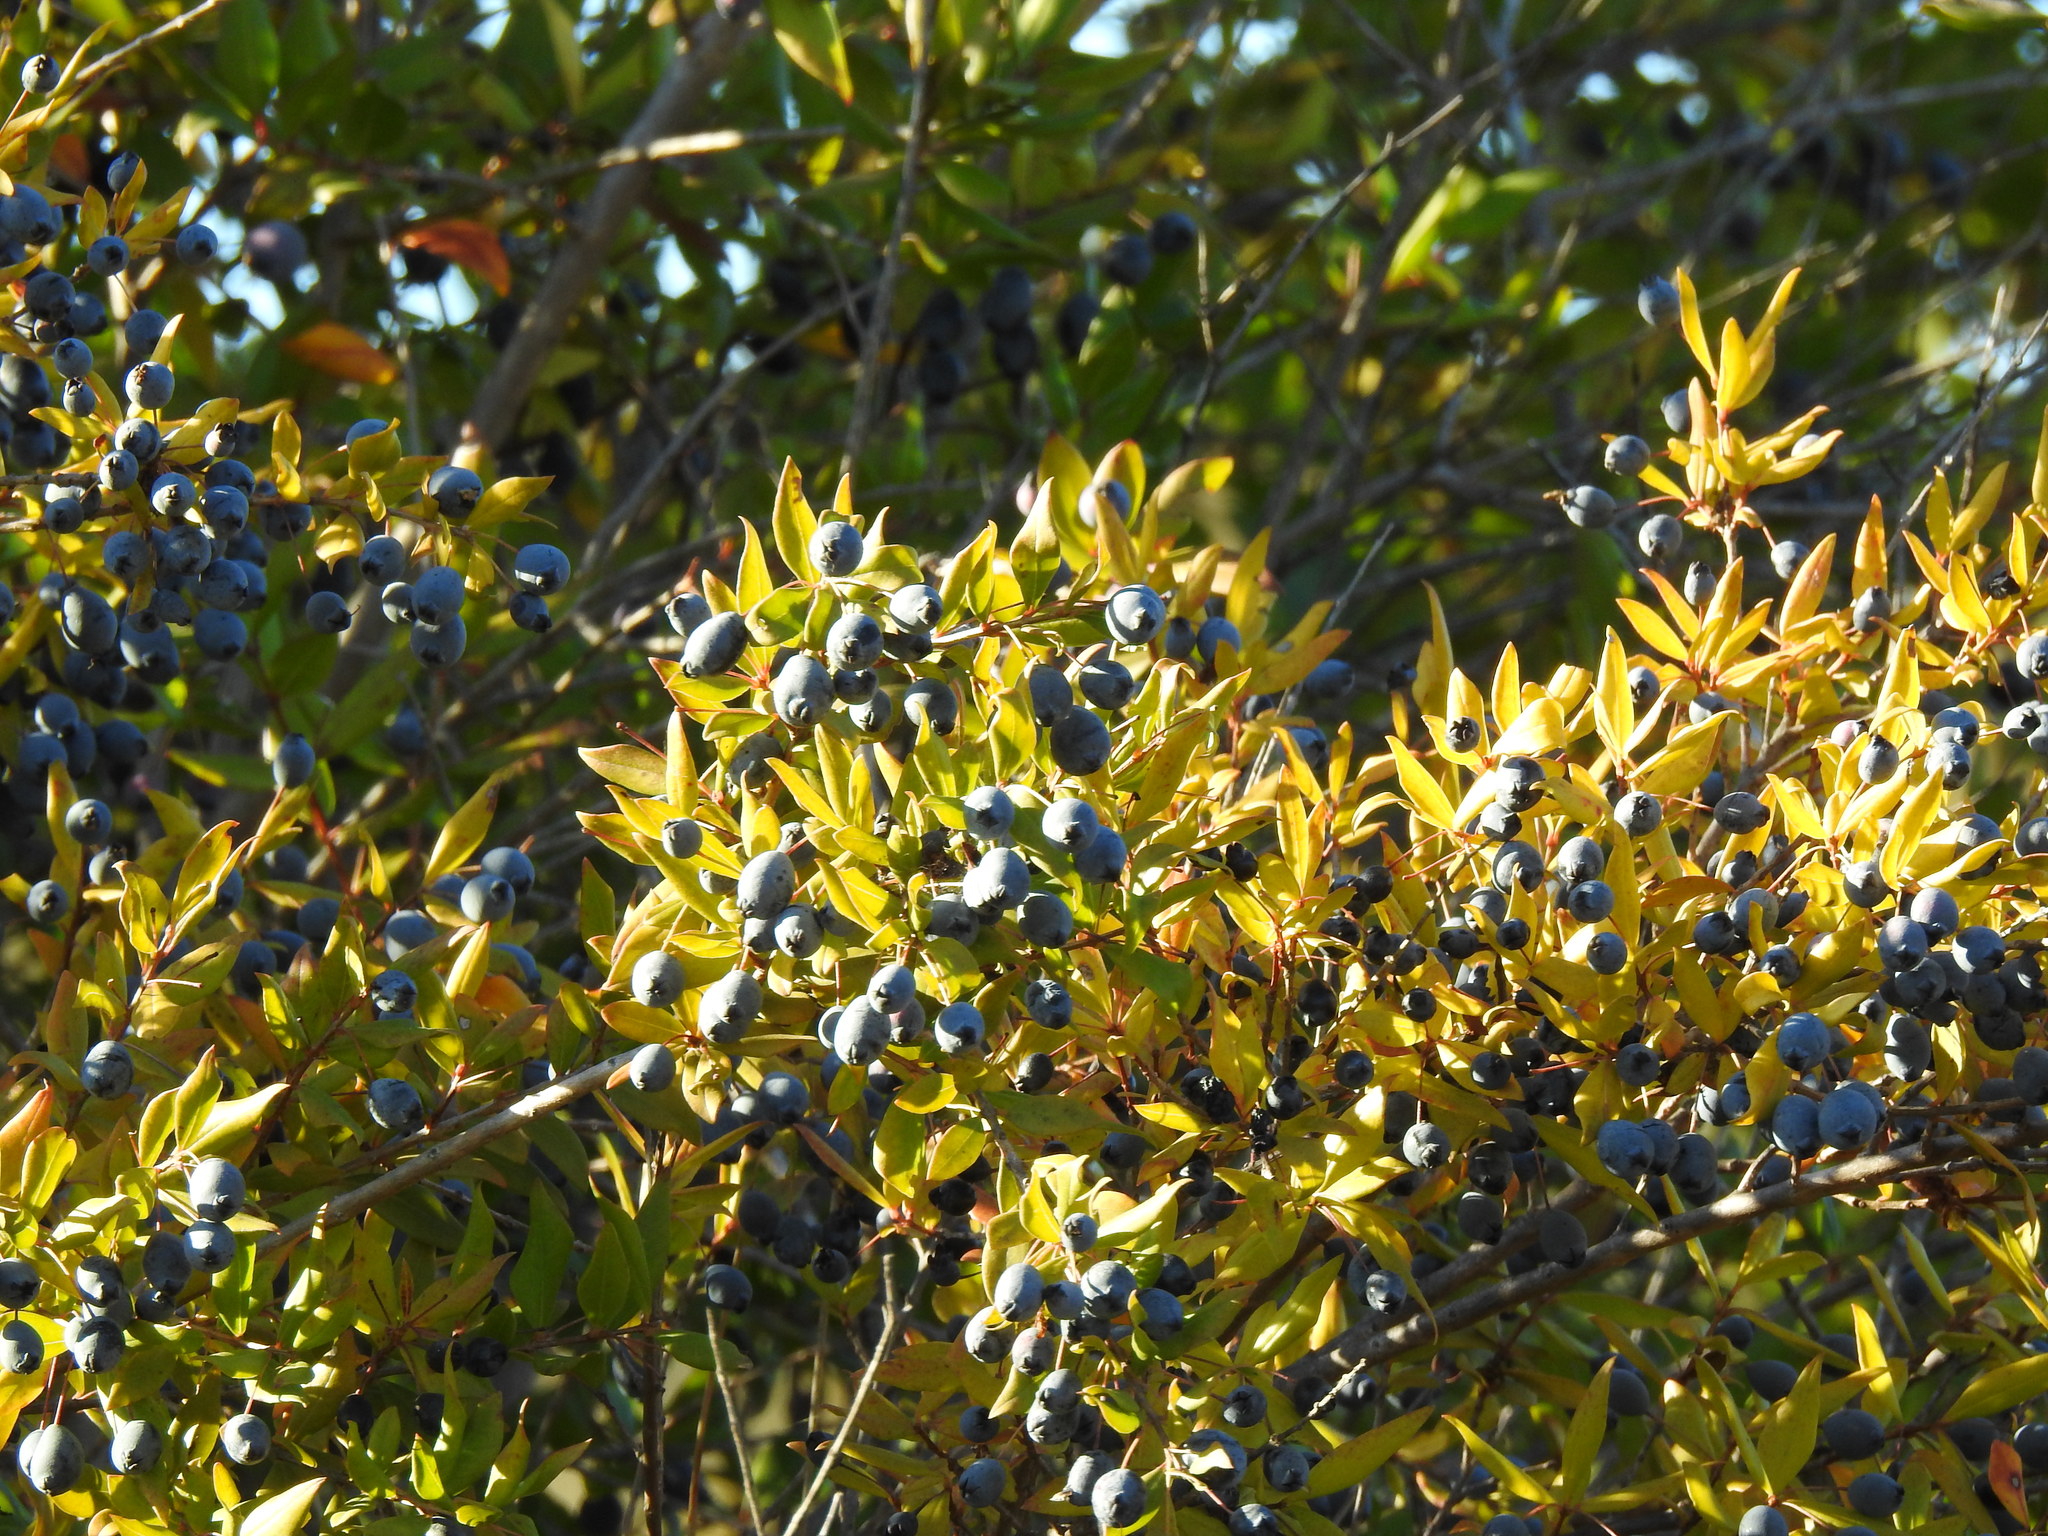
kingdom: Plantae
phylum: Tracheophyta
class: Magnoliopsida
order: Myrtales
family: Myrtaceae
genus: Myrtus
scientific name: Myrtus communis
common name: Myrtle
